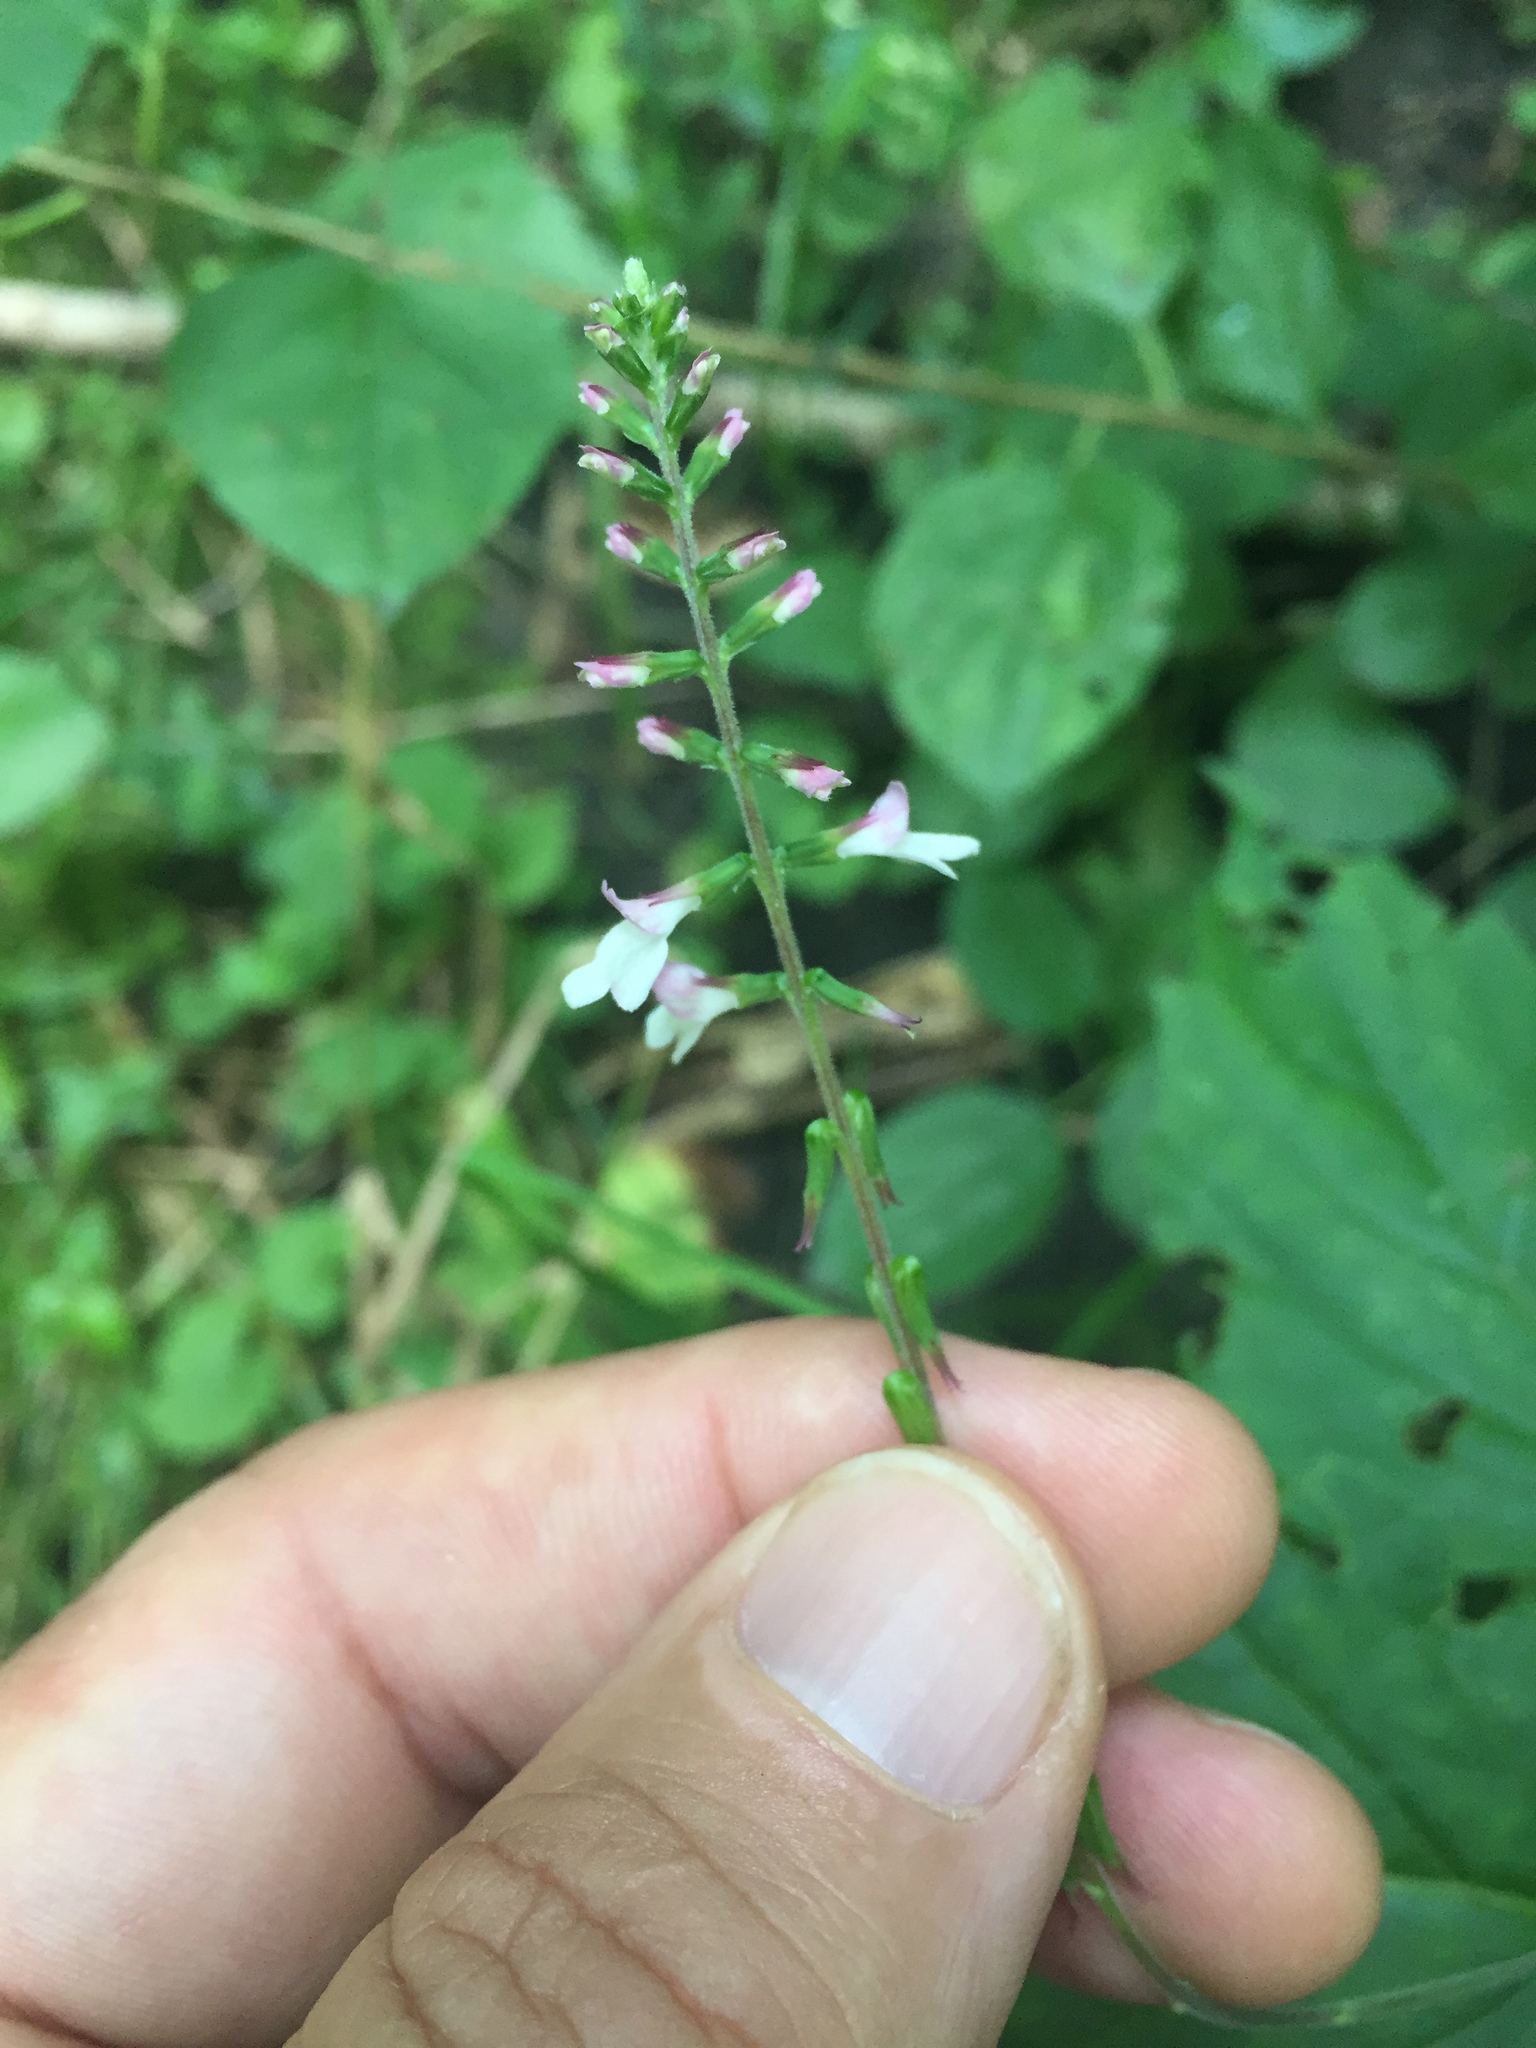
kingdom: Plantae
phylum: Tracheophyta
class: Magnoliopsida
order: Lamiales
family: Phrymaceae
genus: Phryma
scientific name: Phryma leptostachya
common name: American lopseed
